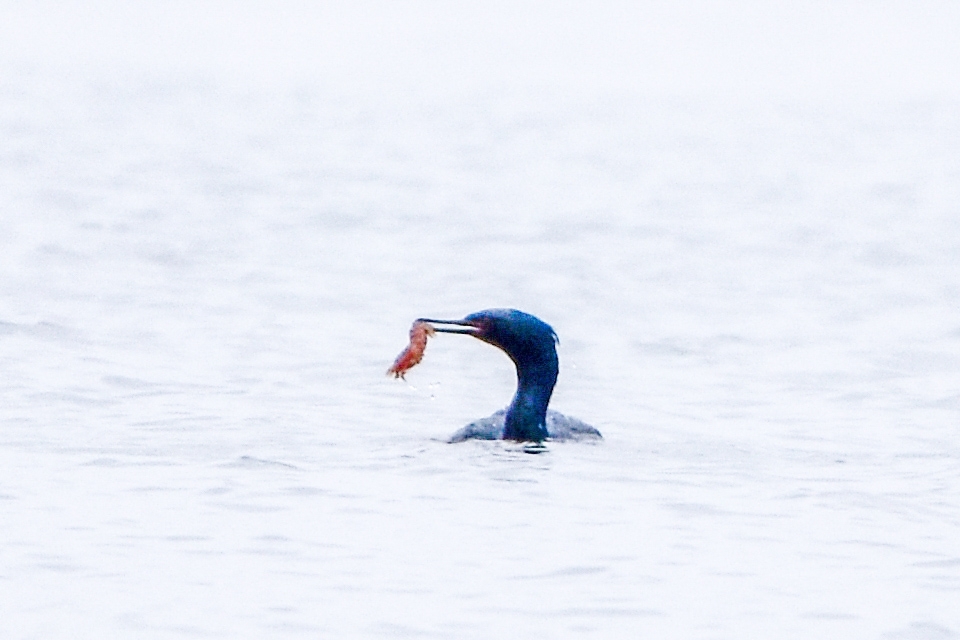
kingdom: Animalia
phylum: Chordata
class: Aves
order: Suliformes
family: Phalacrocoracidae
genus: Phalacrocorax
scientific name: Phalacrocorax pelagicus
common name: Pelagic cormorant
